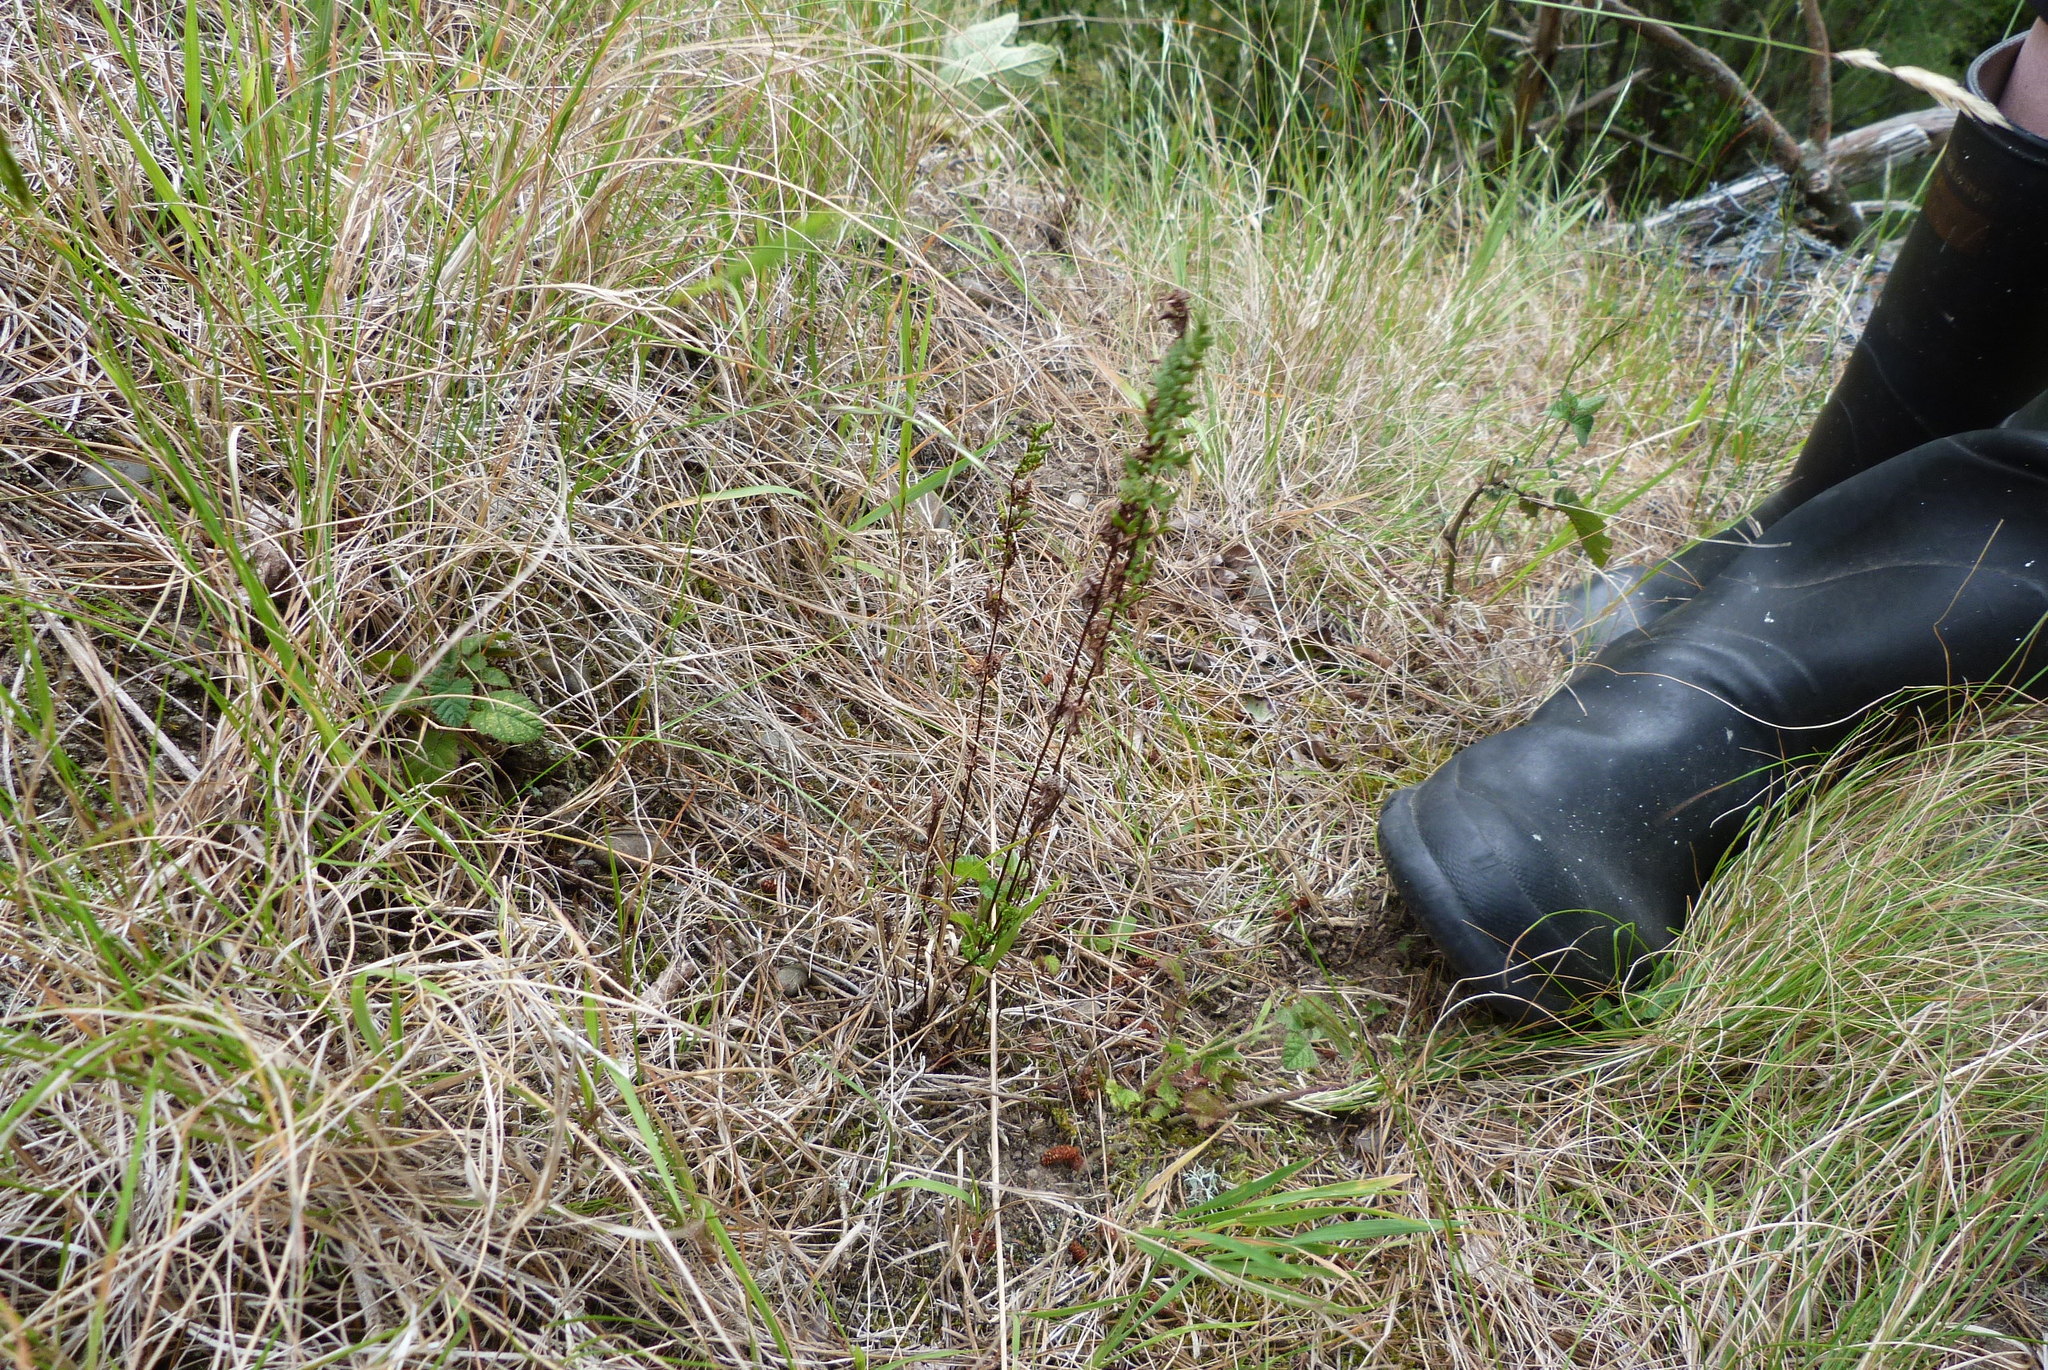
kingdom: Plantae
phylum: Tracheophyta
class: Polypodiopsida
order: Polypodiales
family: Pteridaceae
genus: Cheilanthes
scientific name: Cheilanthes sieberi
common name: Mulga fern
